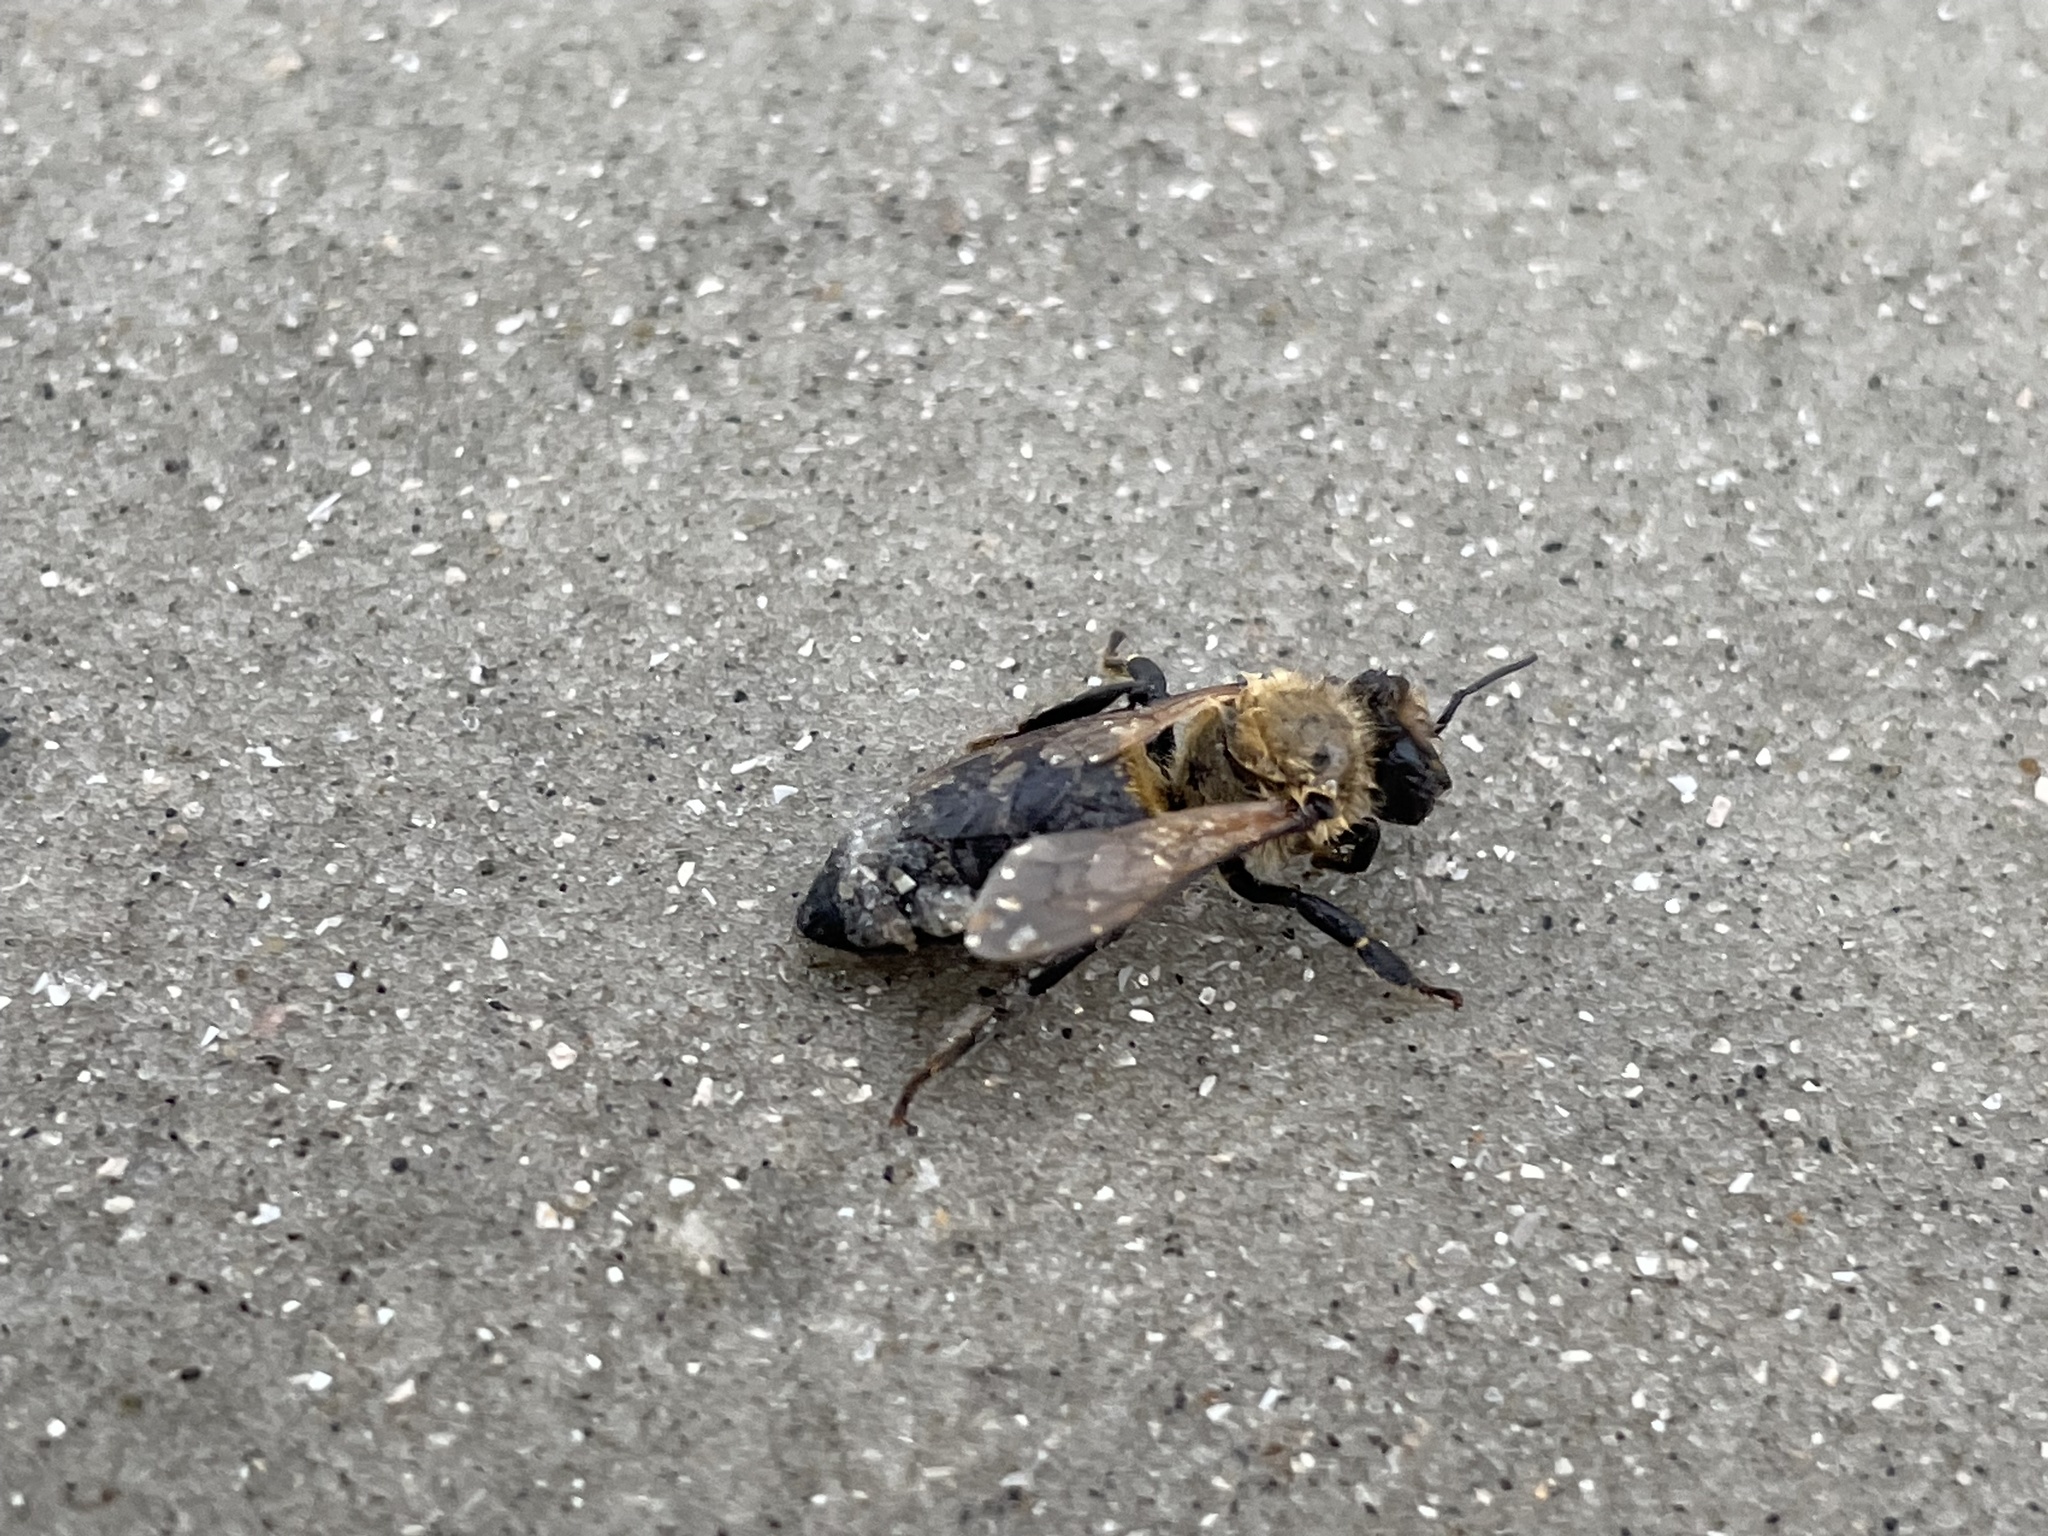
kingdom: Animalia
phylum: Arthropoda
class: Insecta
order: Hymenoptera
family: Apidae
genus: Apis
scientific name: Apis mellifera
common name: Honey bee
